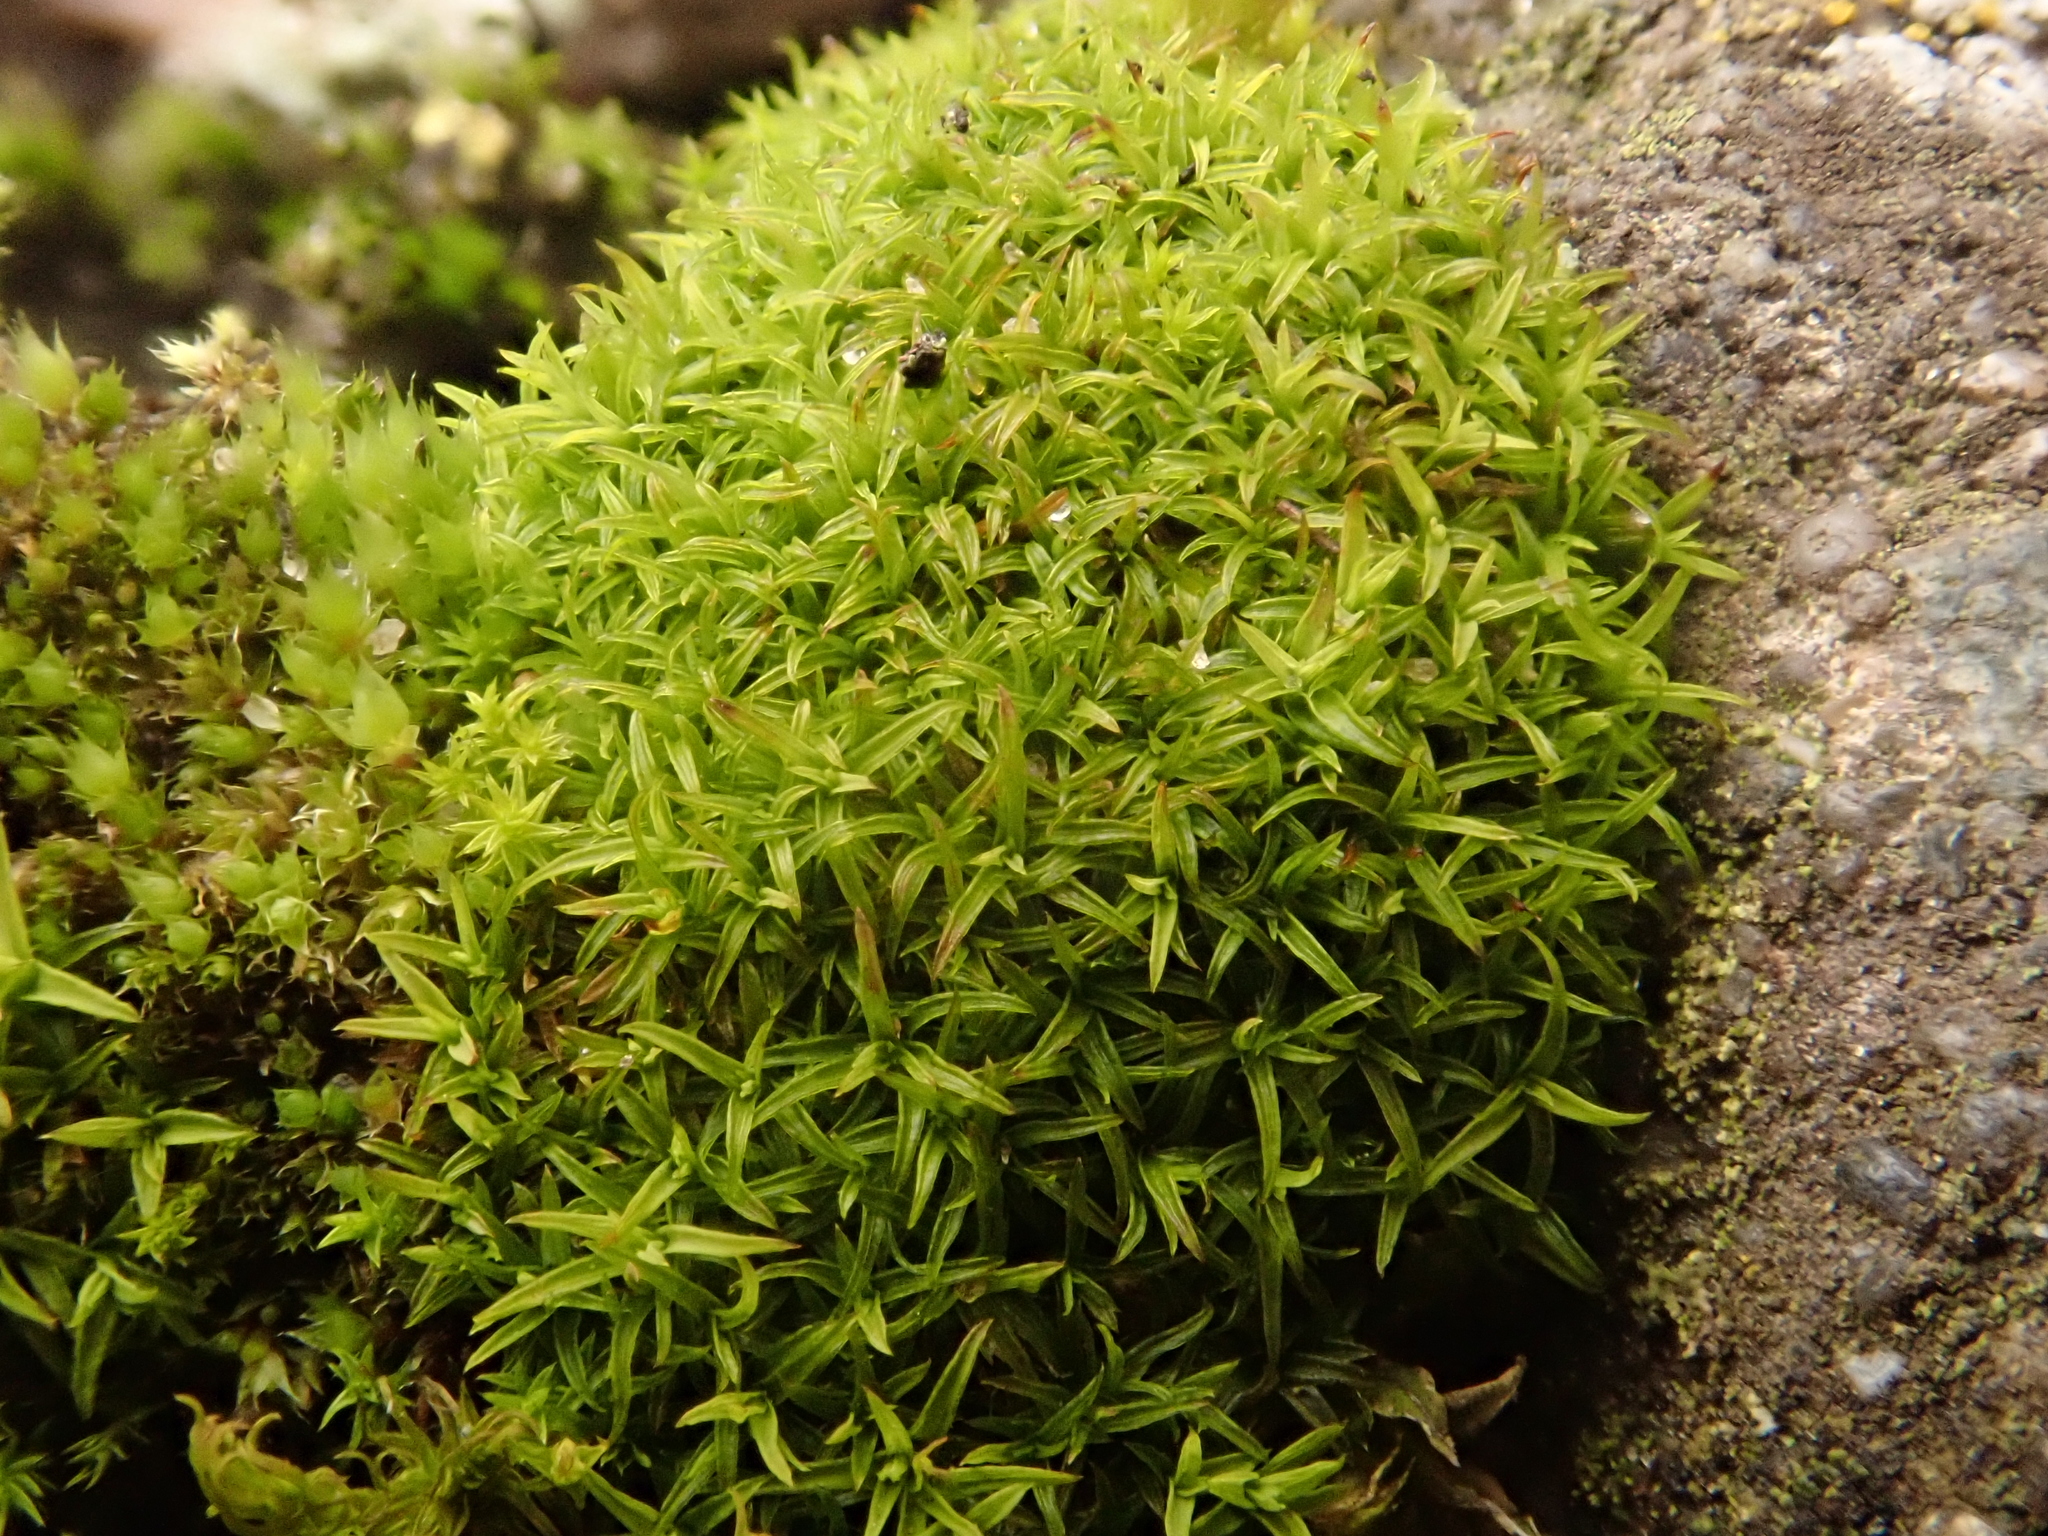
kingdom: Plantae
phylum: Bryophyta
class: Bryopsida
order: Pottiales
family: Pottiaceae
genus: Bryoerythrophyllum
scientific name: Bryoerythrophyllum recurvirostrum
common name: Red beard moss
